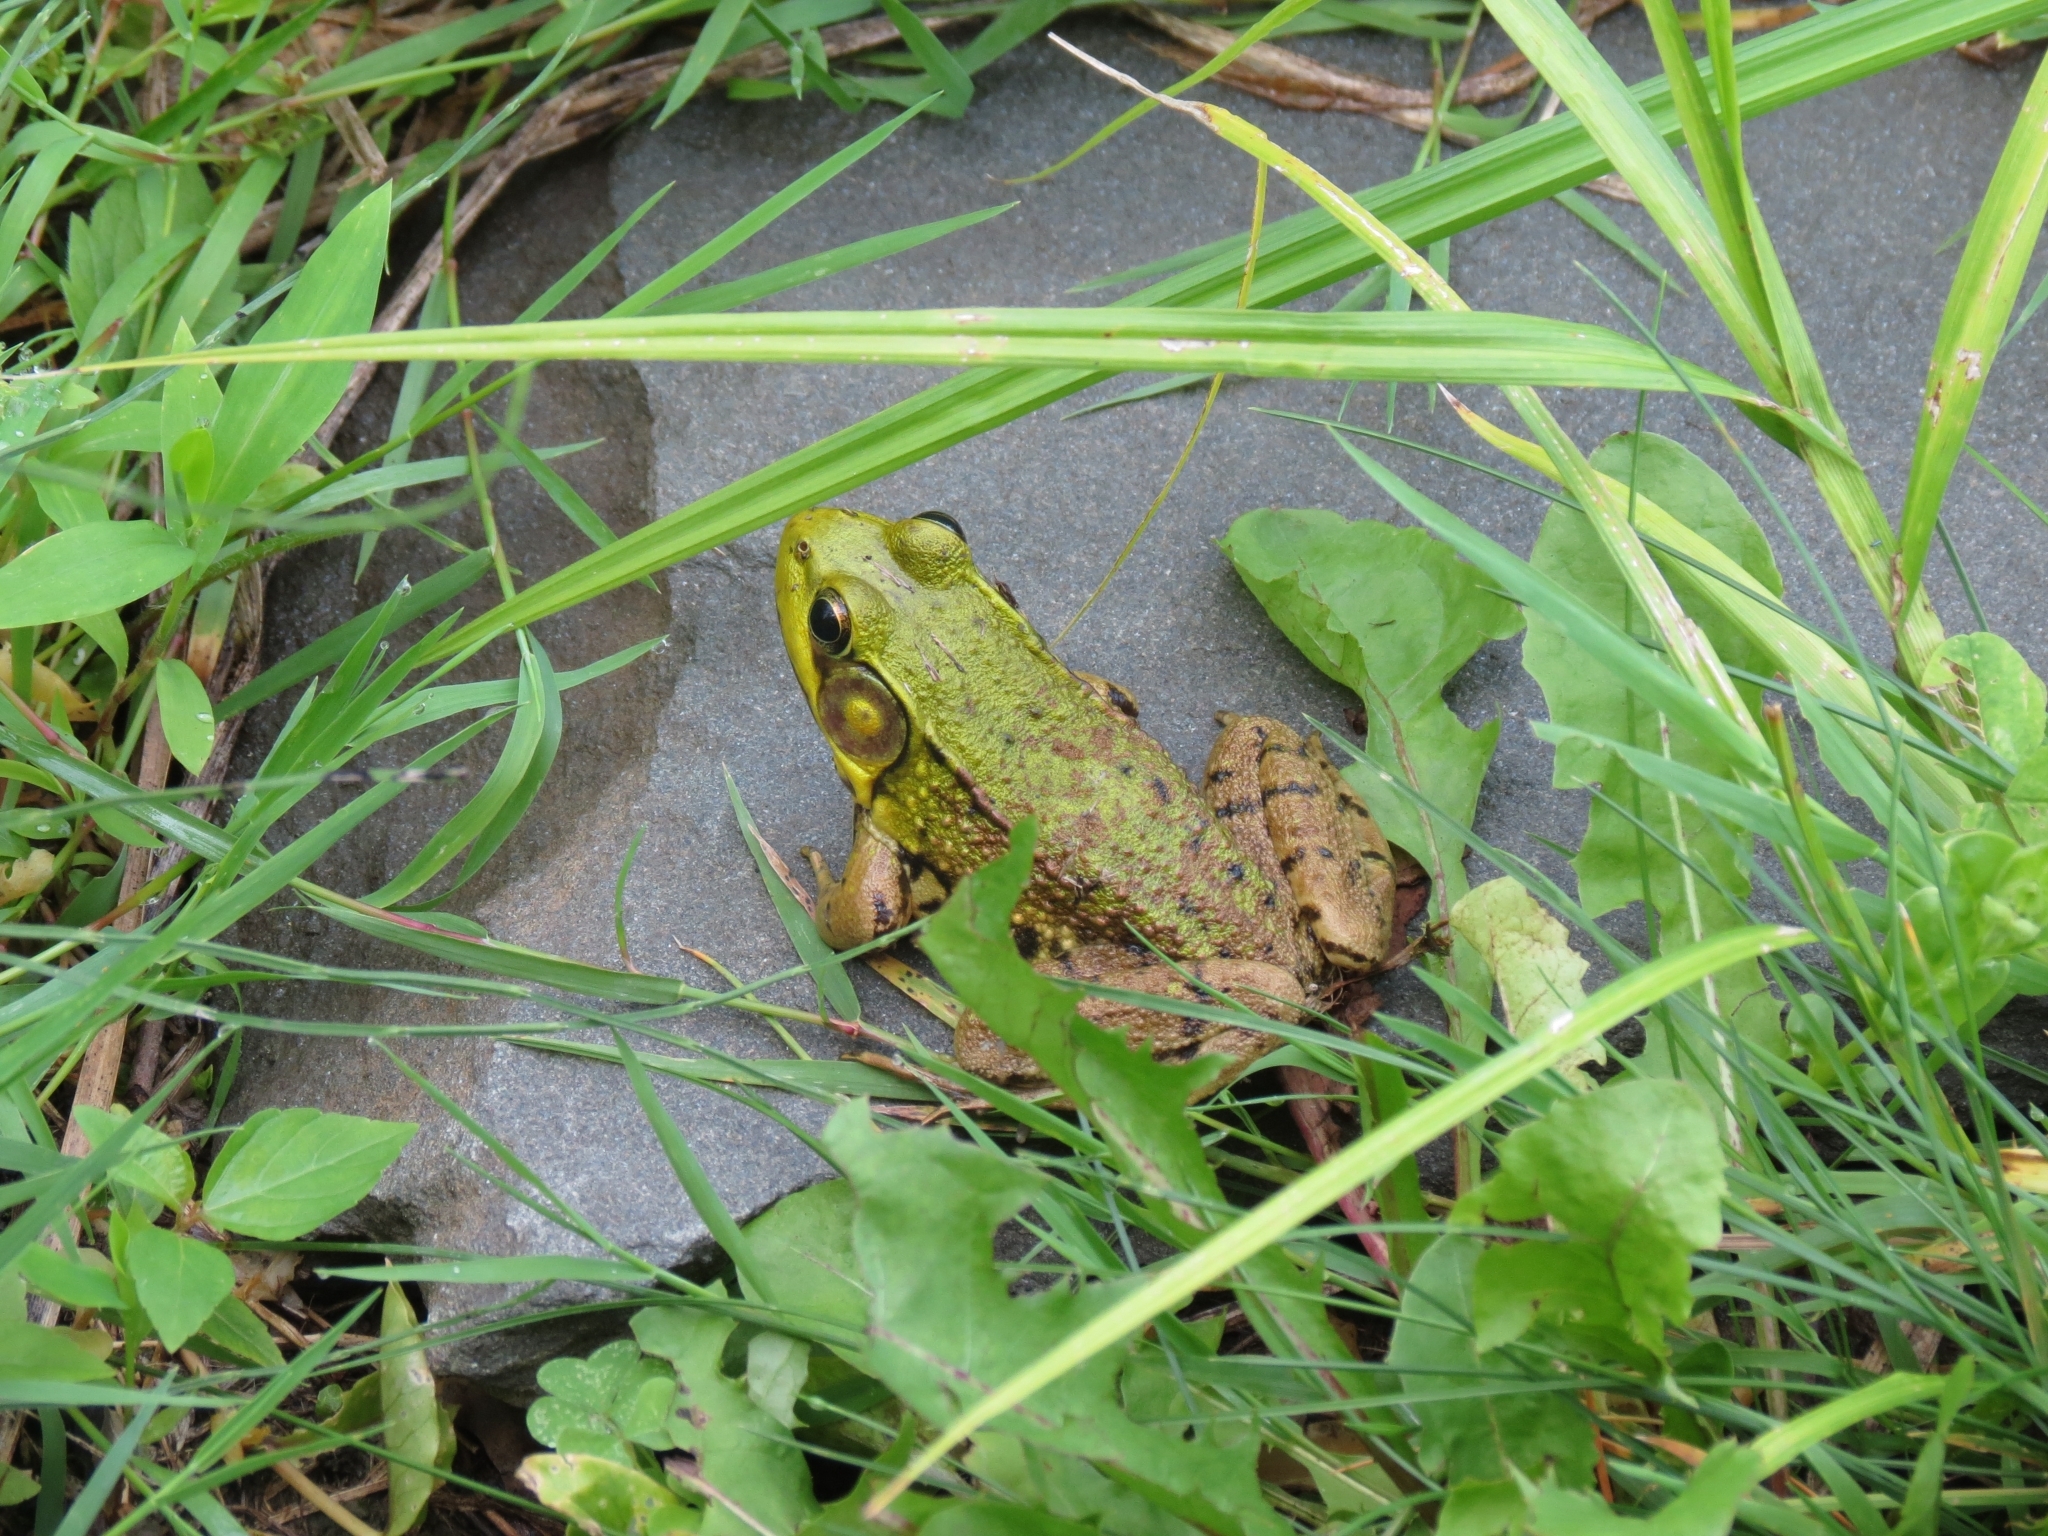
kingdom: Animalia
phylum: Chordata
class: Amphibia
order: Anura
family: Ranidae
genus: Lithobates
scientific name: Lithobates clamitans
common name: Green frog
